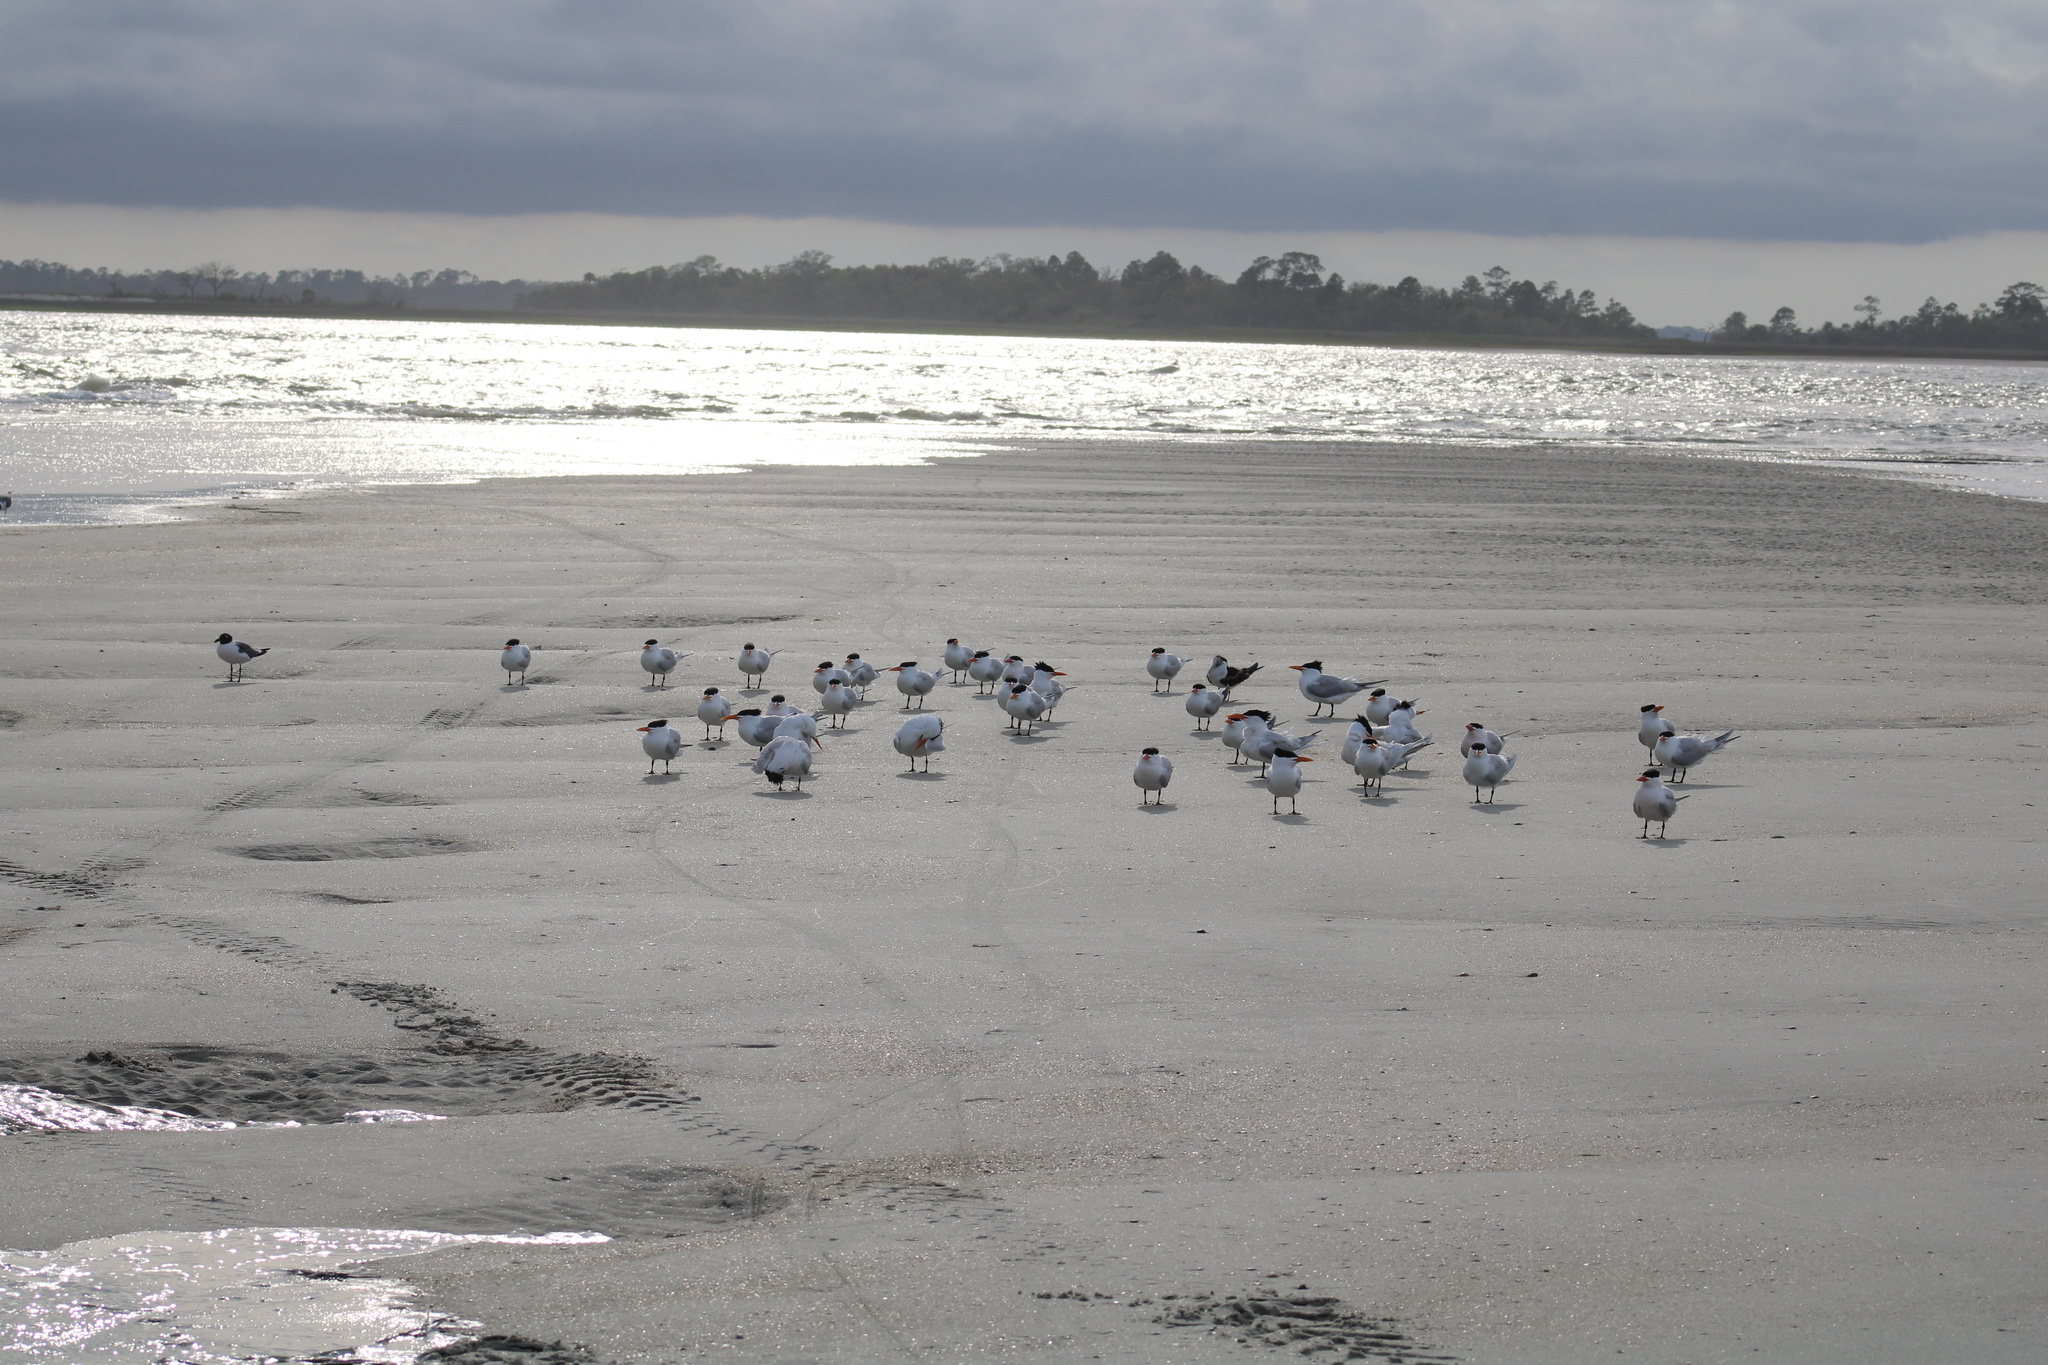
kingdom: Animalia
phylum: Chordata
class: Aves
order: Charadriiformes
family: Laridae
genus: Thalasseus
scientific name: Thalasseus maximus
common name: Royal tern
